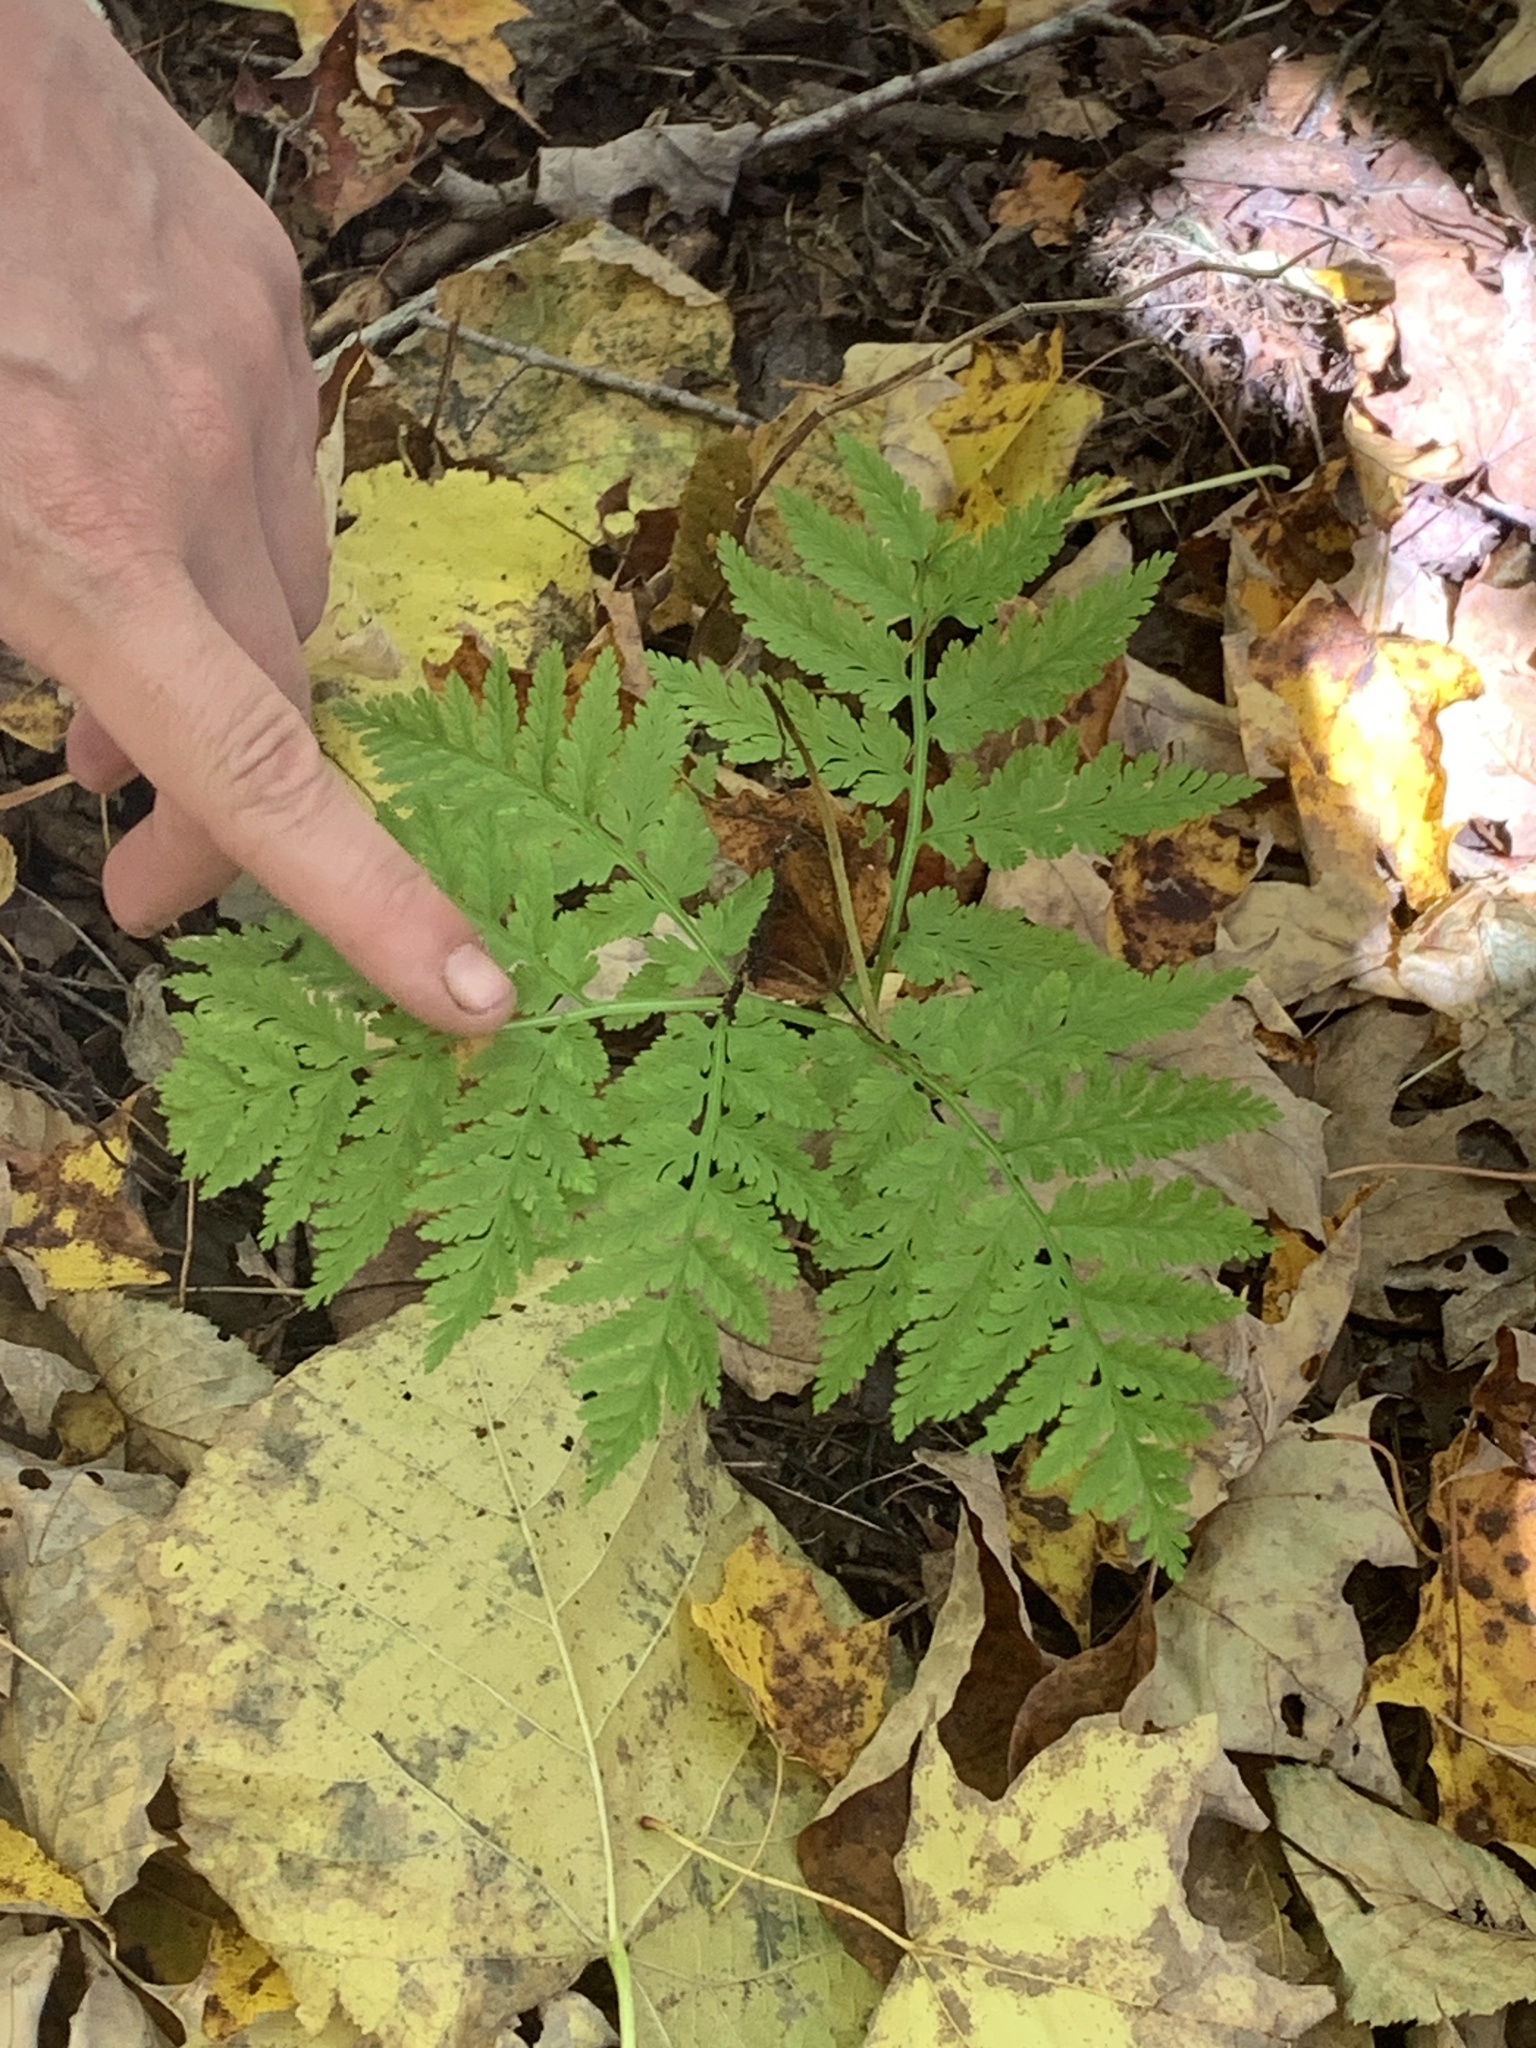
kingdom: Plantae
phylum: Tracheophyta
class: Polypodiopsida
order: Ophioglossales
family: Ophioglossaceae
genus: Botrypus
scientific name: Botrypus virginianus
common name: Common grapefern
